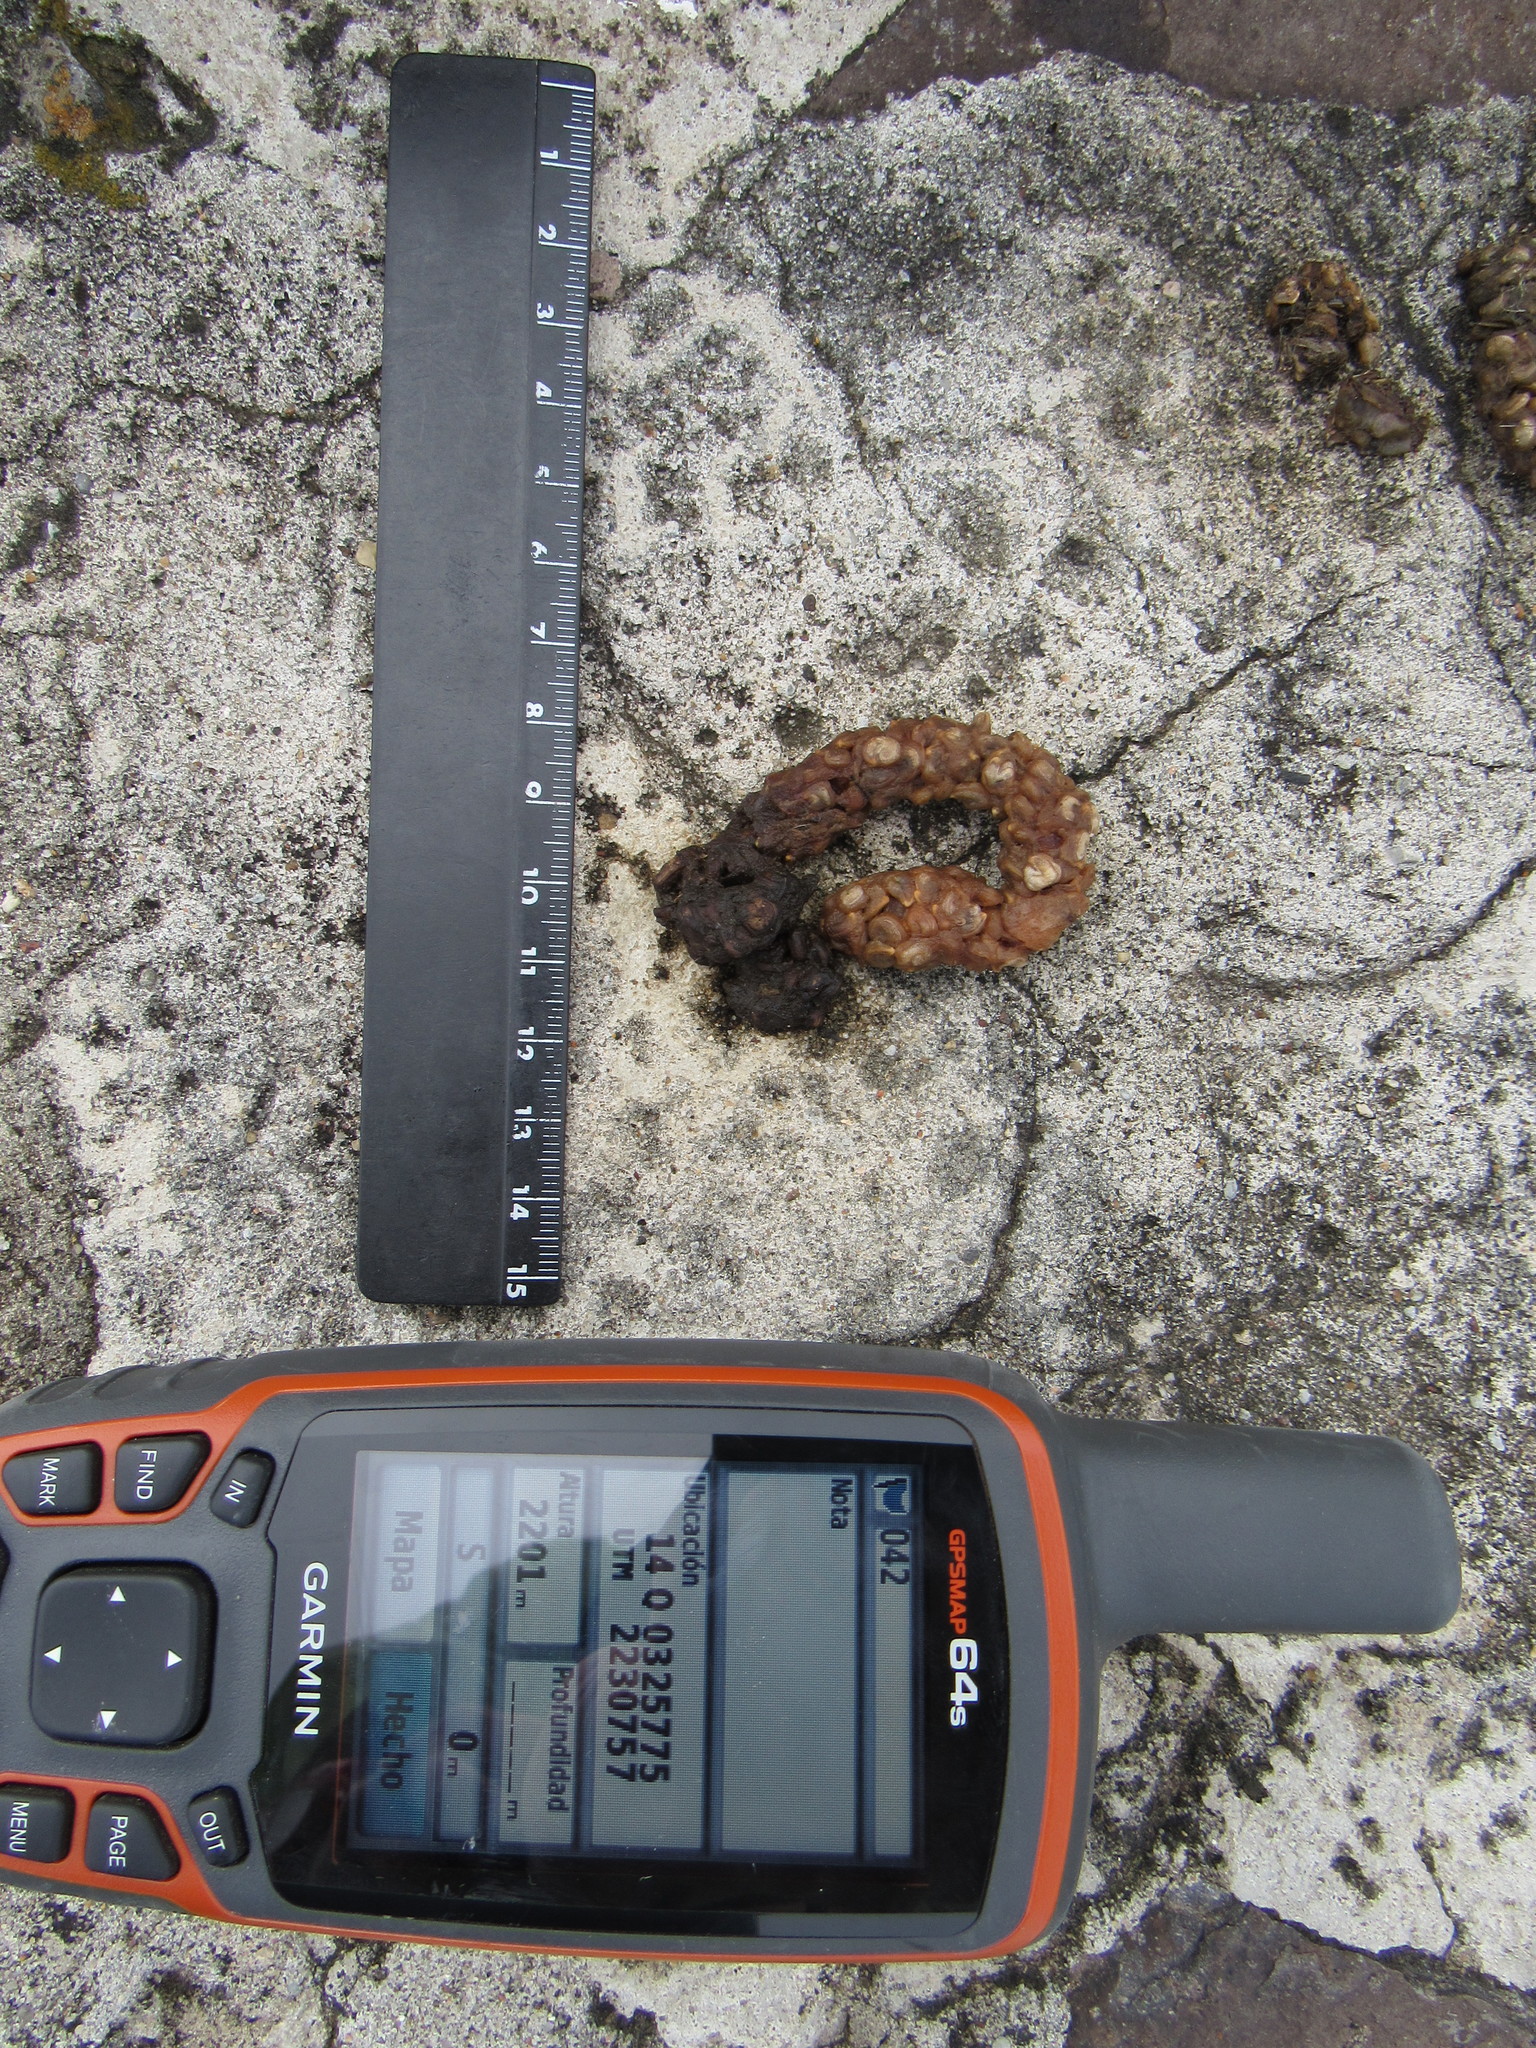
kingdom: Animalia
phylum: Chordata
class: Mammalia
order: Carnivora
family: Canidae
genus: Urocyon
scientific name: Urocyon cinereoargenteus
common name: Gray fox
